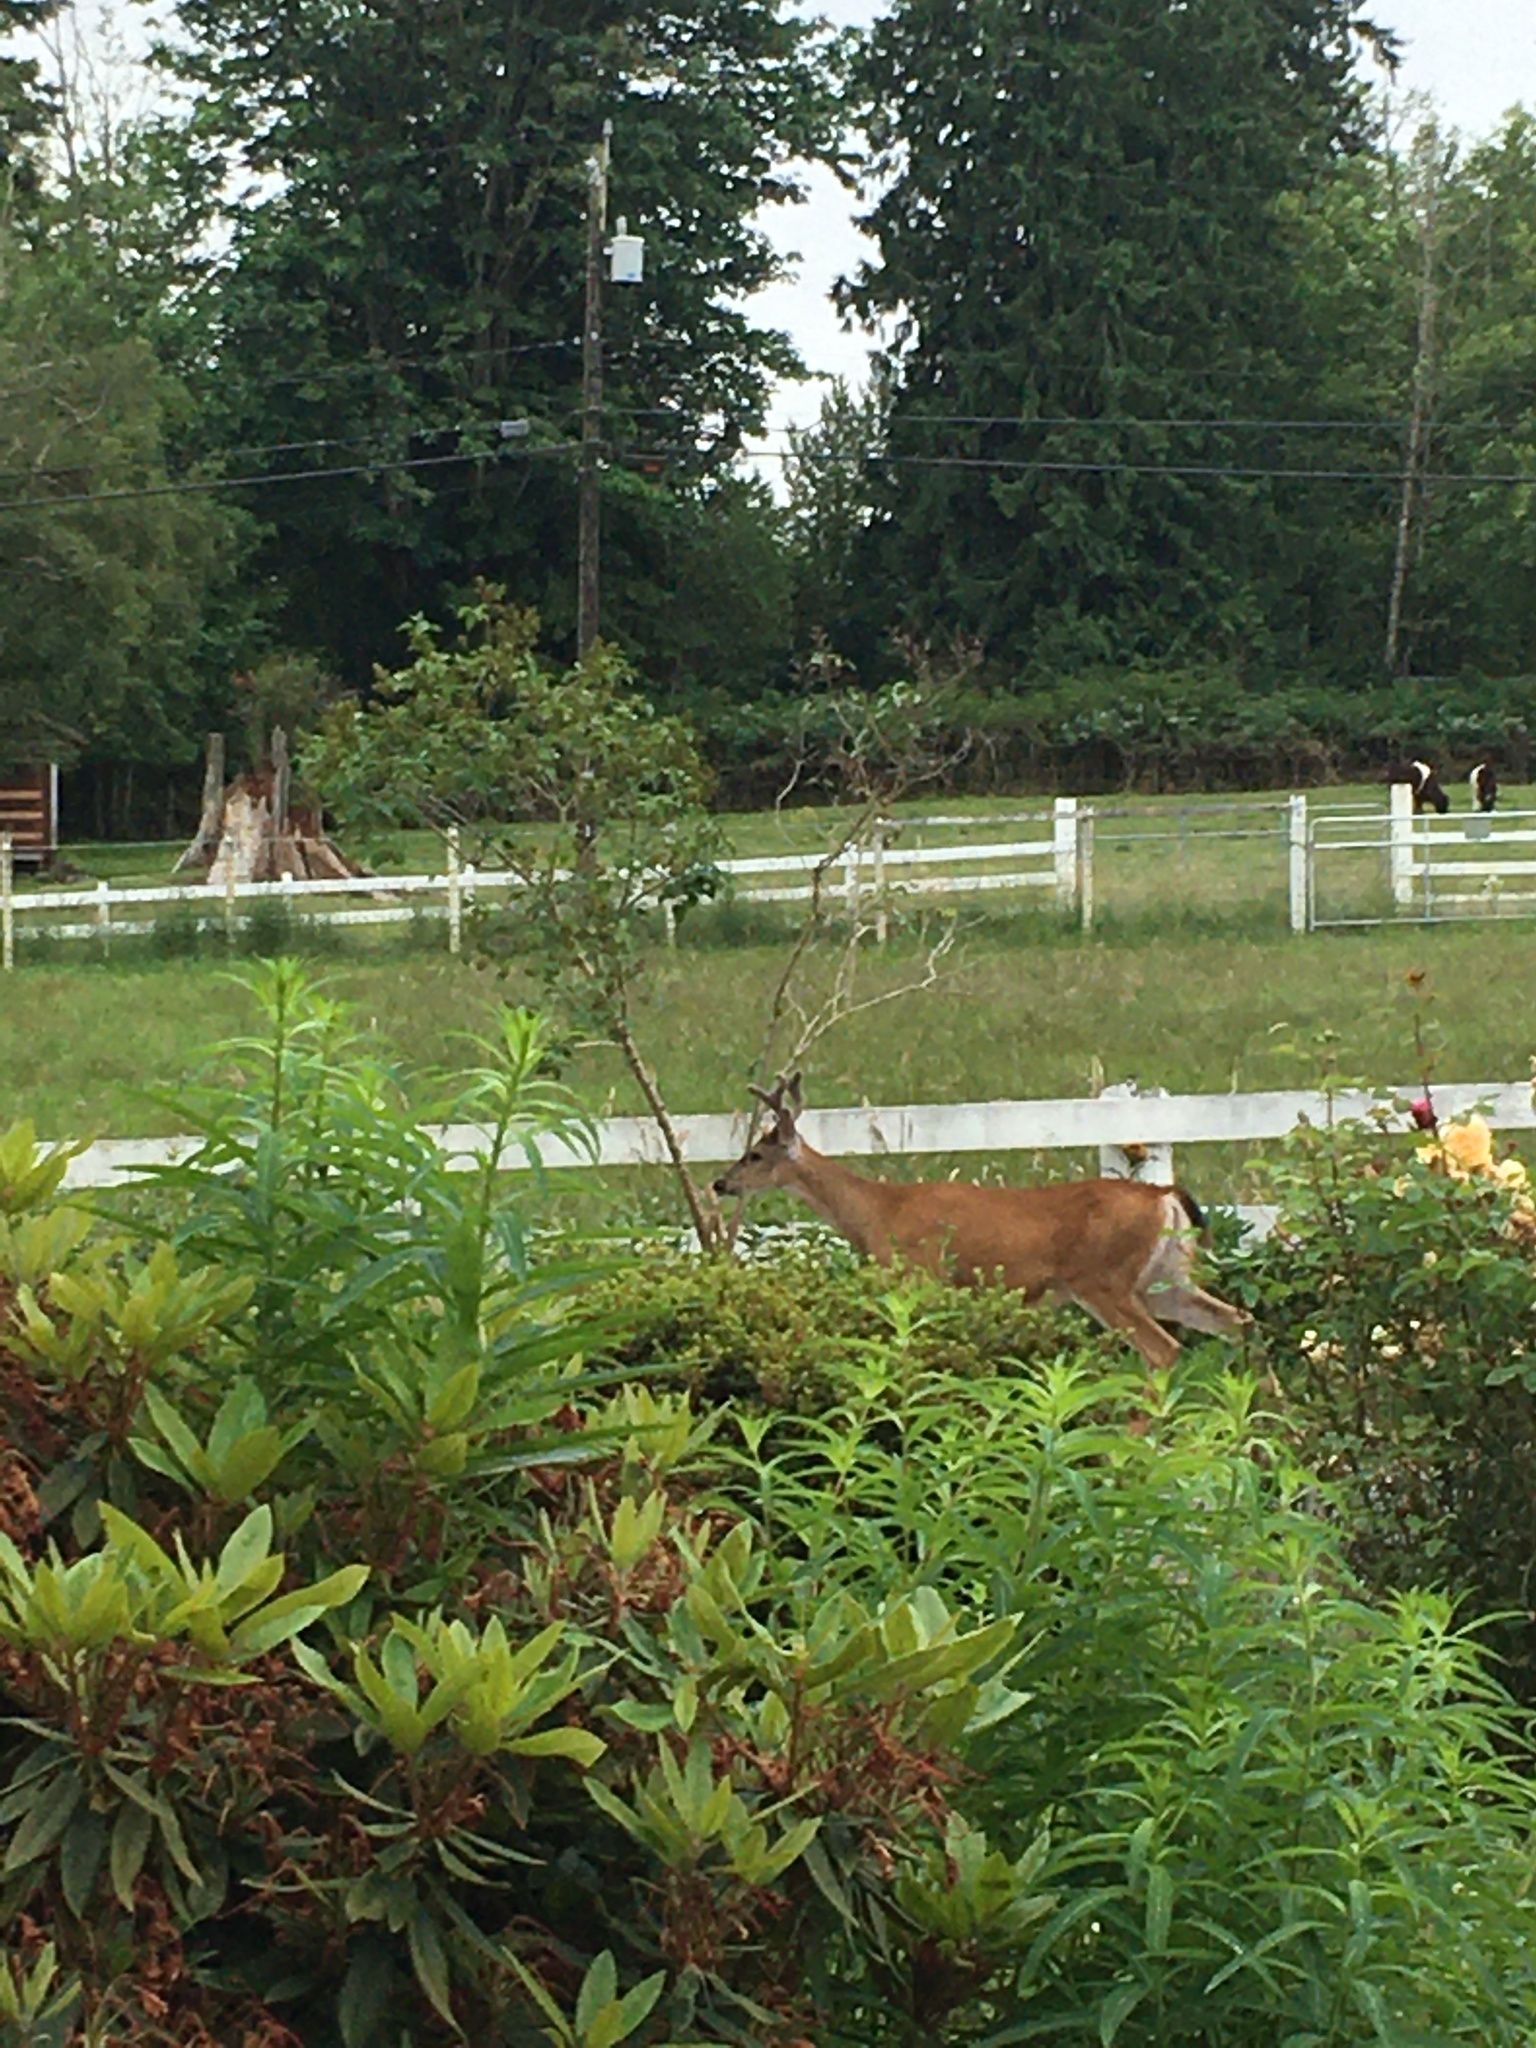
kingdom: Animalia
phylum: Chordata
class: Mammalia
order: Artiodactyla
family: Cervidae
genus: Odocoileus
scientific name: Odocoileus hemionus
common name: Mule deer
